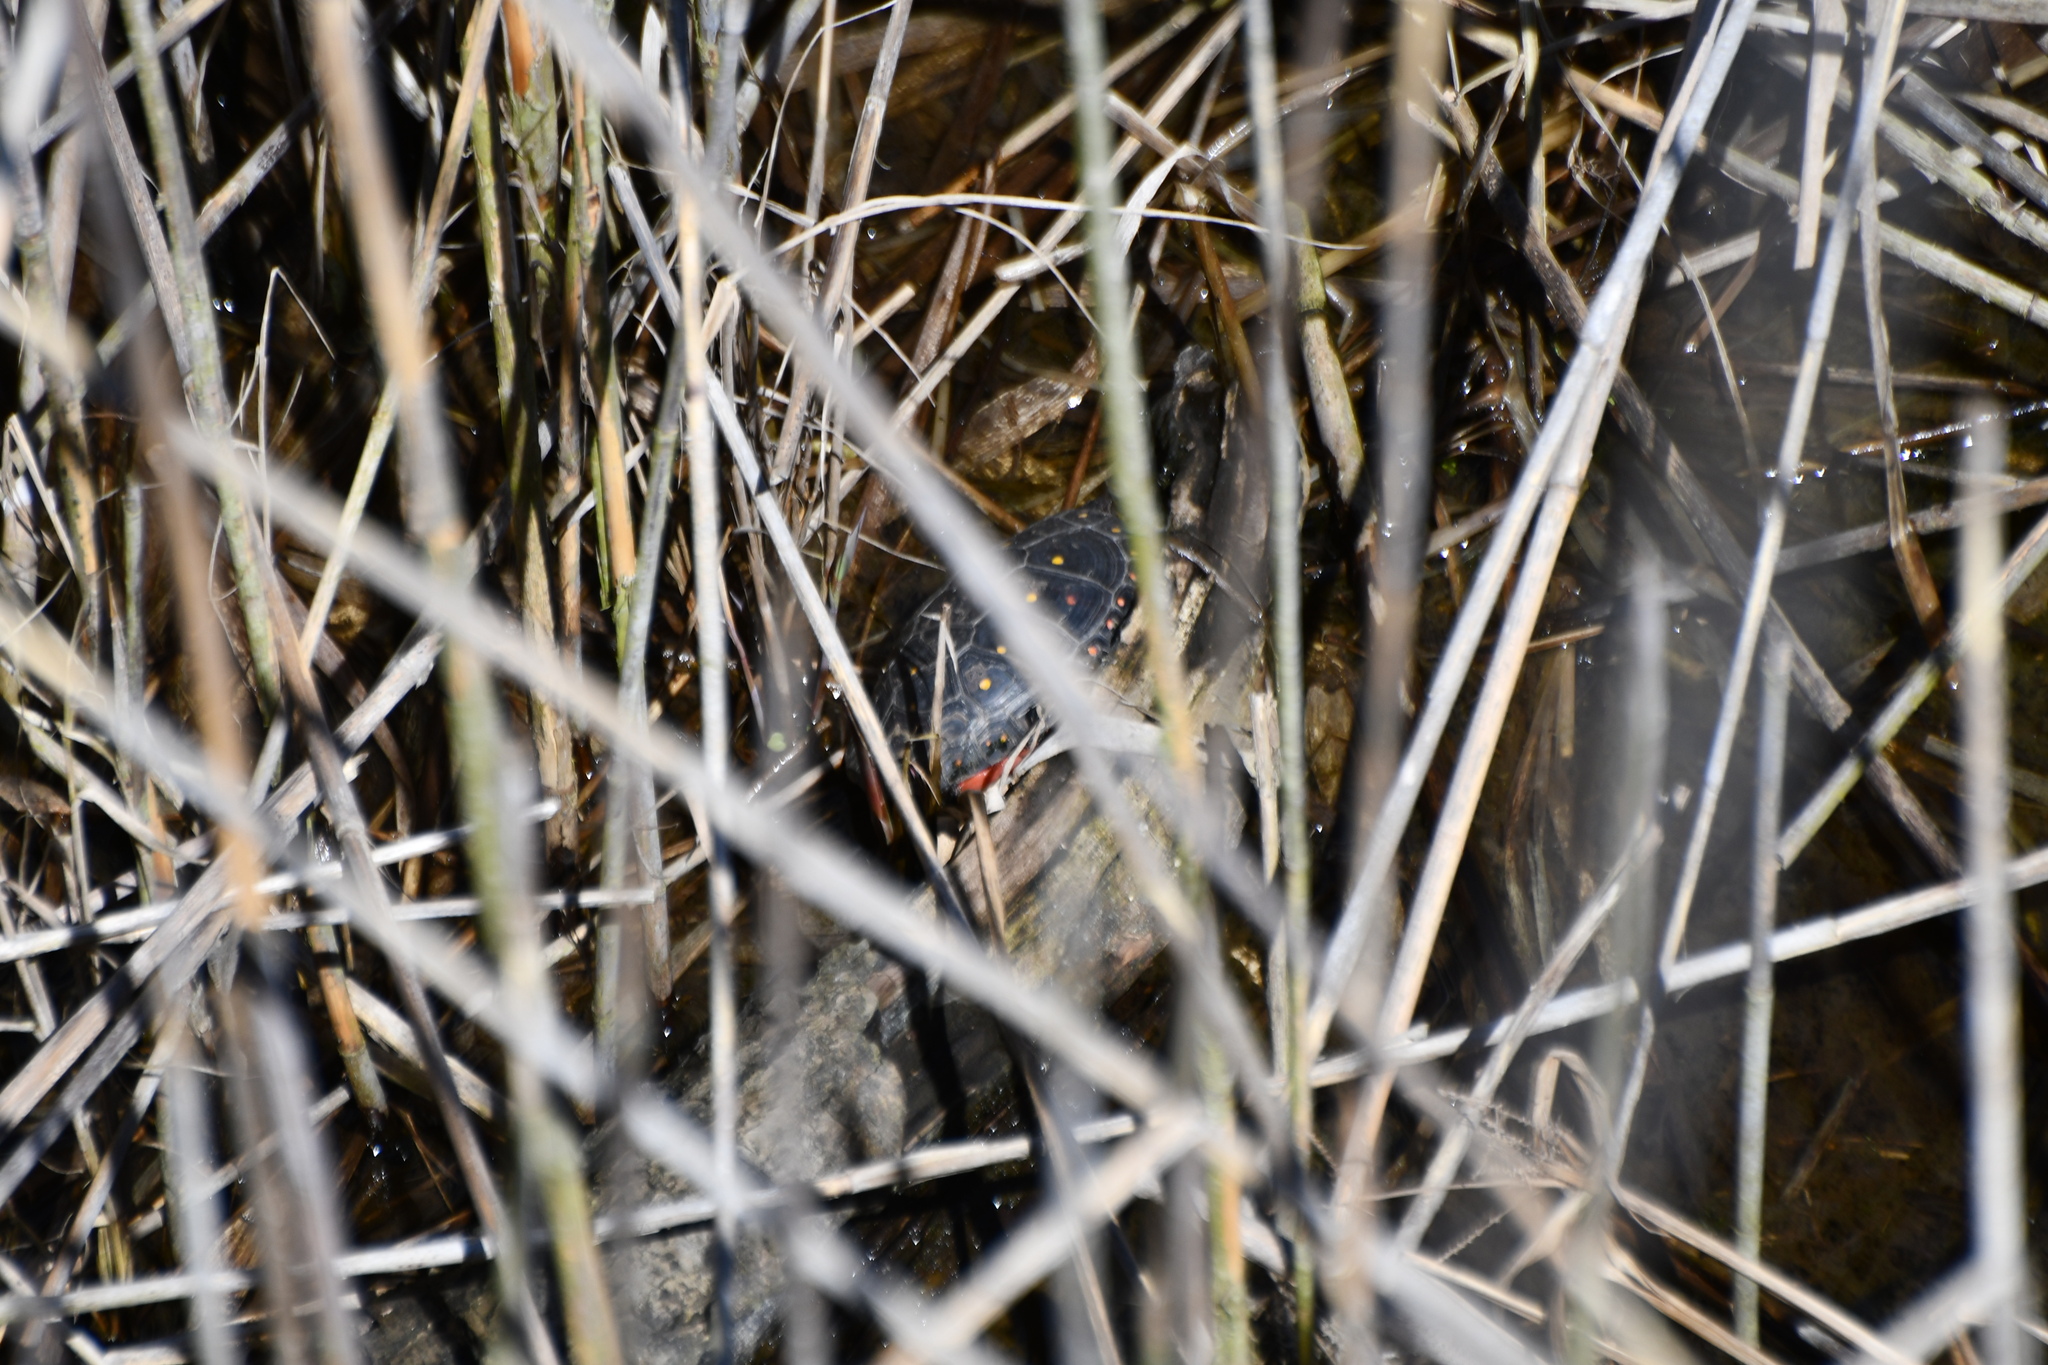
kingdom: Animalia
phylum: Chordata
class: Testudines
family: Emydidae
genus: Clemmys
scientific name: Clemmys guttata
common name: Spotted turtle
